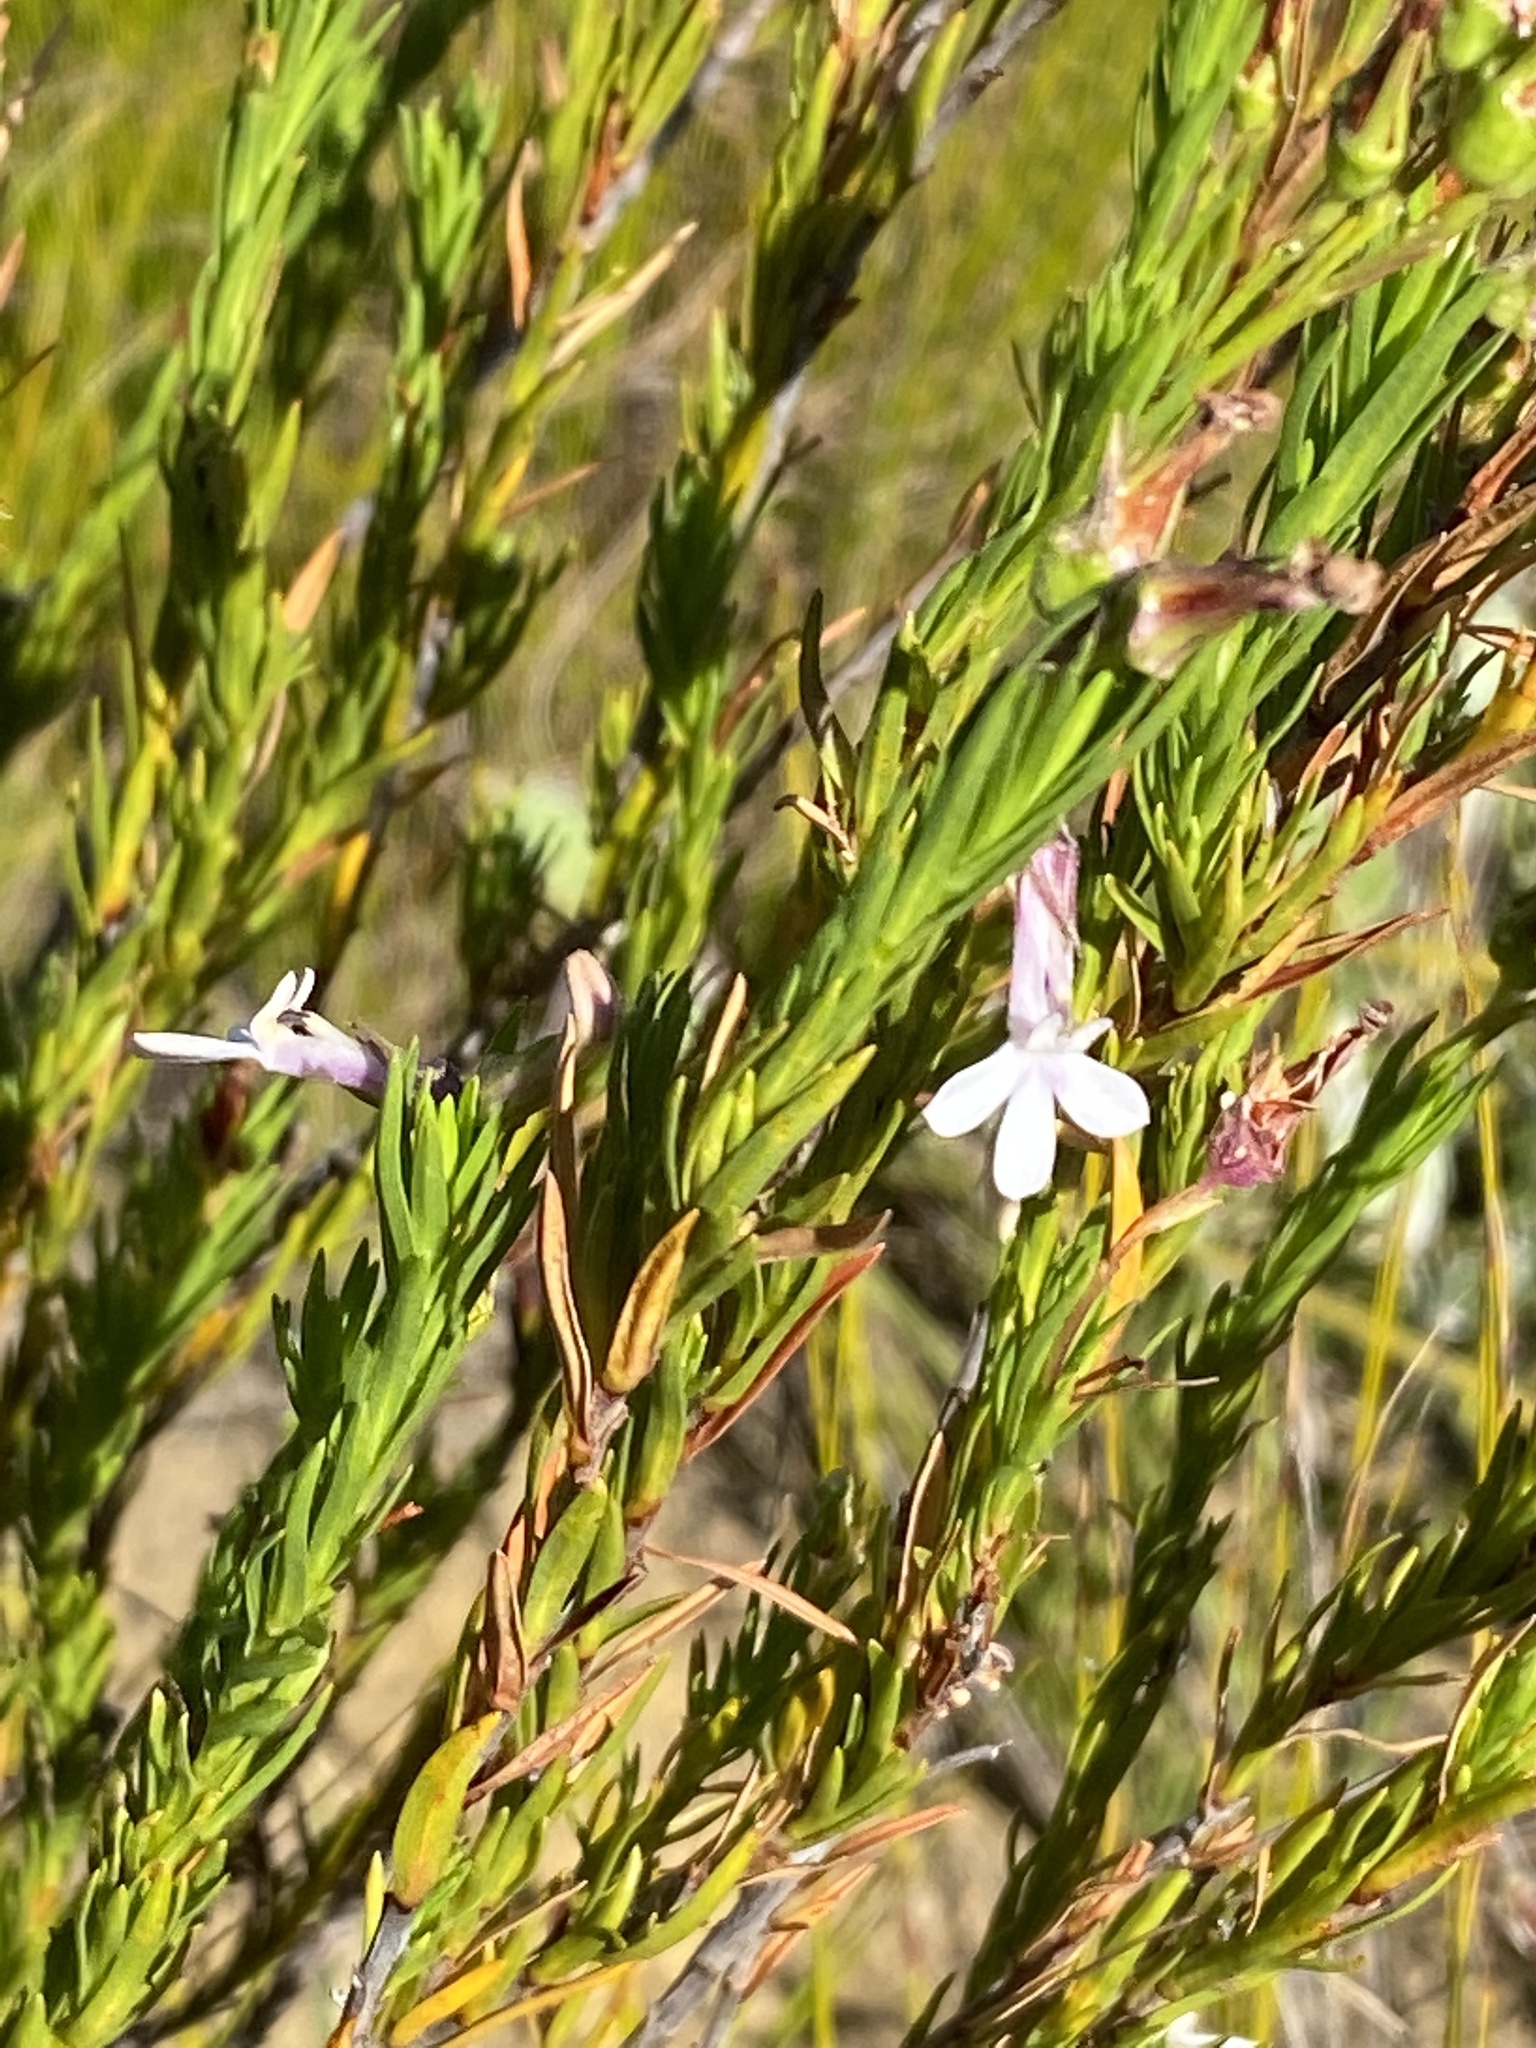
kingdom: Plantae
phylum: Tracheophyta
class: Magnoliopsida
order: Asterales
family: Campanulaceae
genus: Lobelia
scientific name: Lobelia pinifolia
